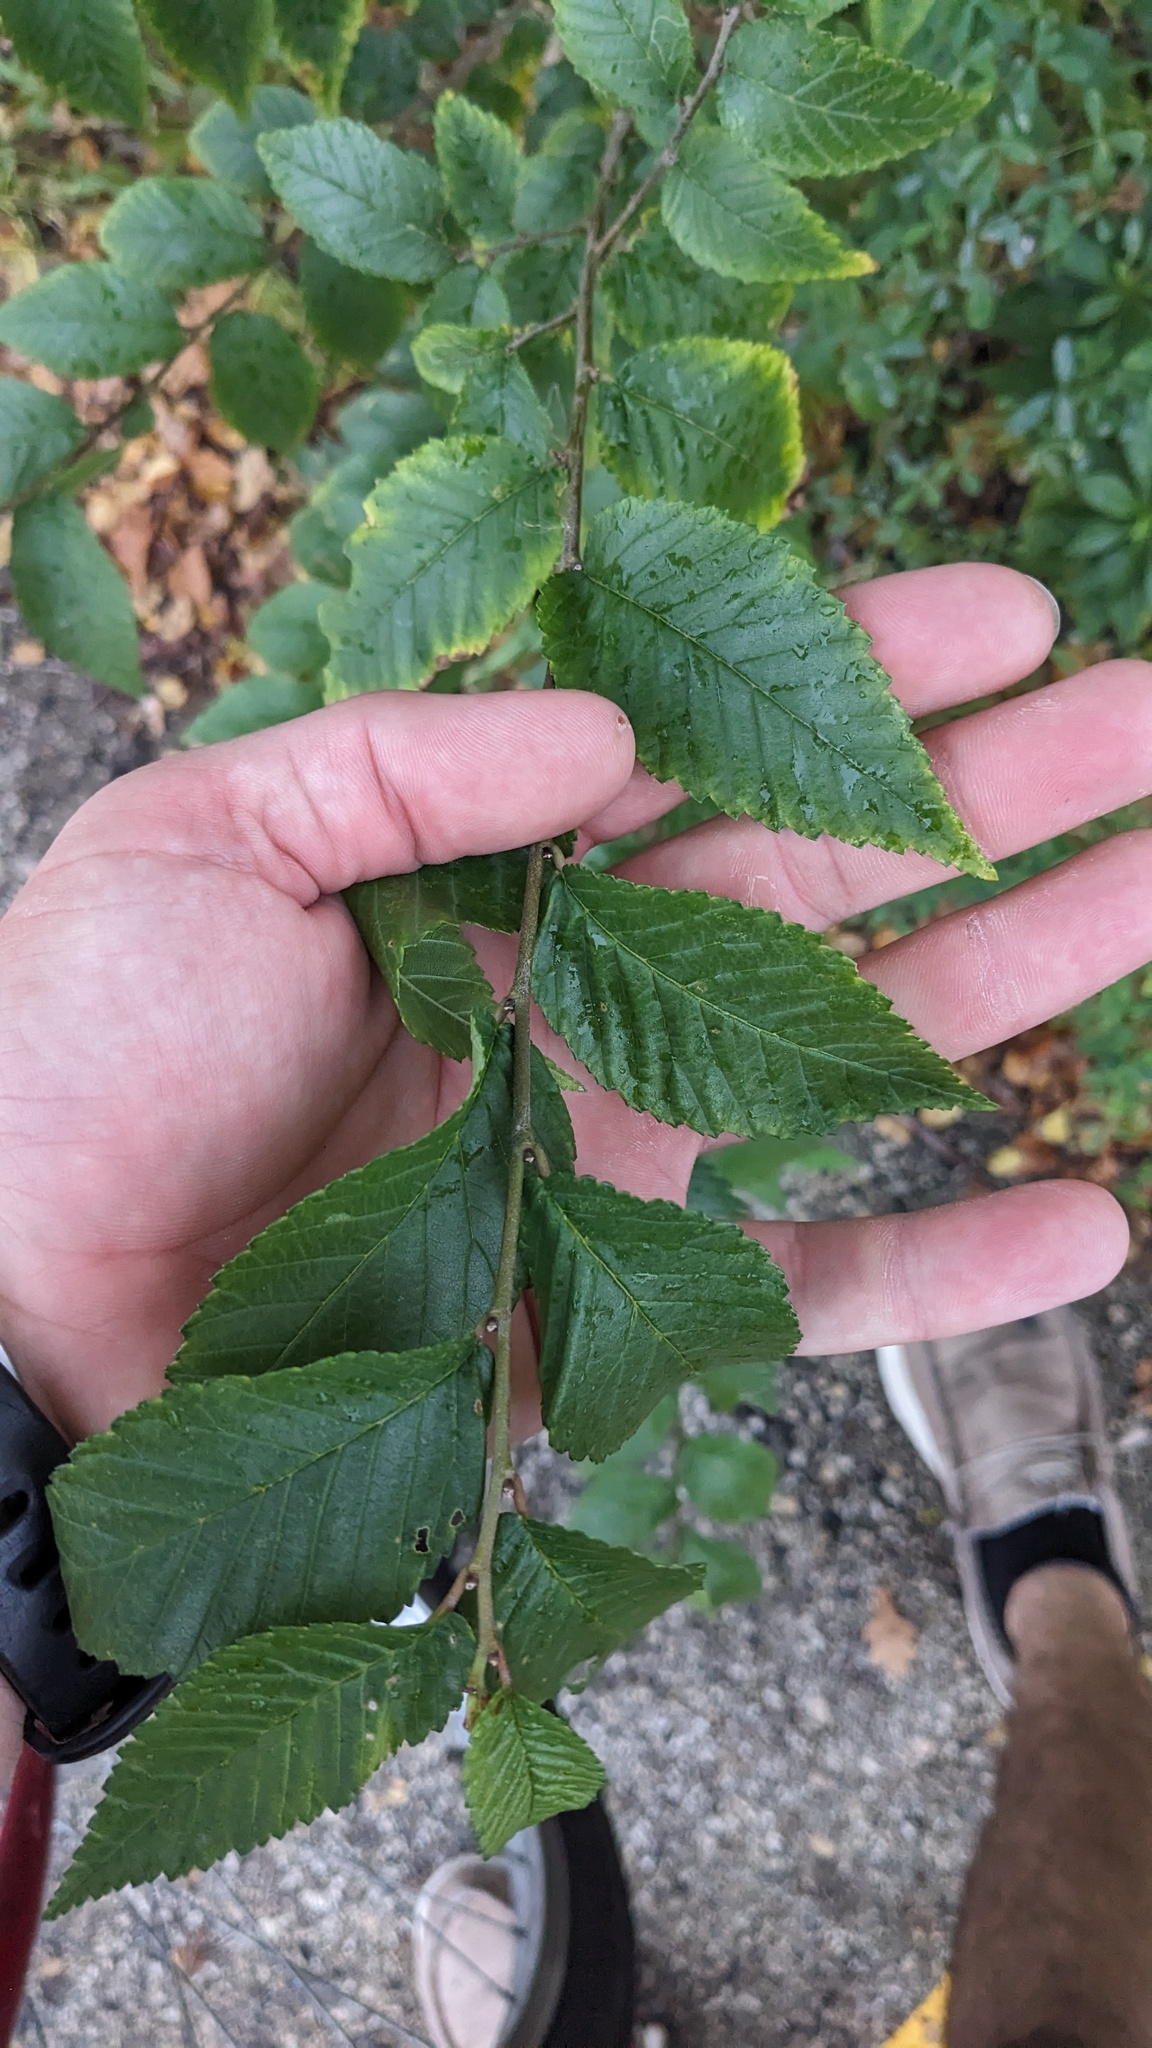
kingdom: Plantae
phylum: Tracheophyta
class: Magnoliopsida
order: Rosales
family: Ulmaceae
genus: Ulmus
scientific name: Ulmus pumila
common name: Siberian elm
